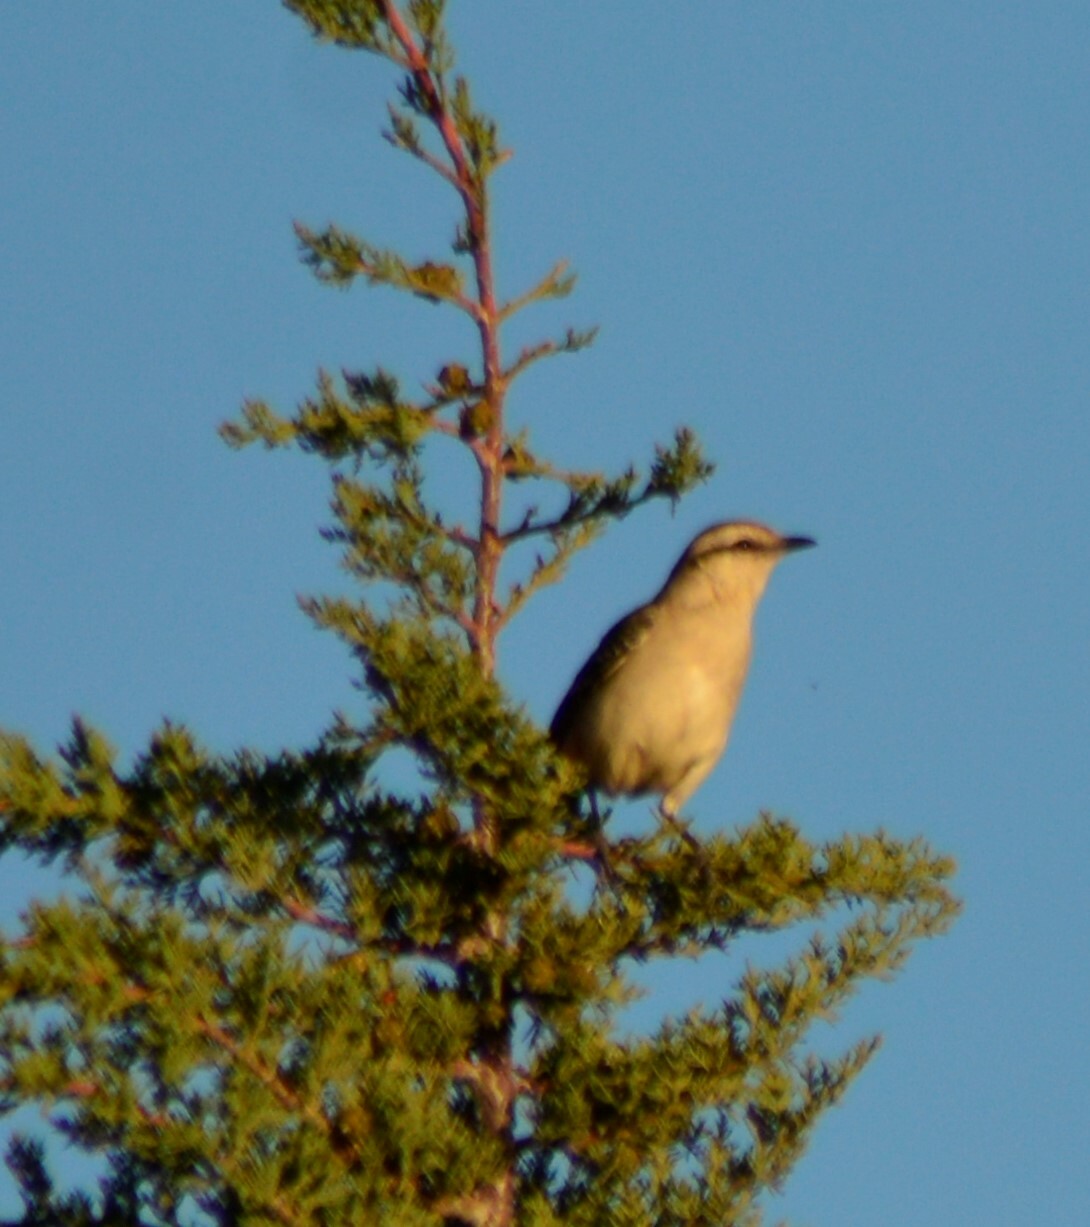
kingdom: Animalia
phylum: Chordata
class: Aves
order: Passeriformes
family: Mimidae
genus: Mimus
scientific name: Mimus saturninus
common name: Chalk-browed mockingbird
